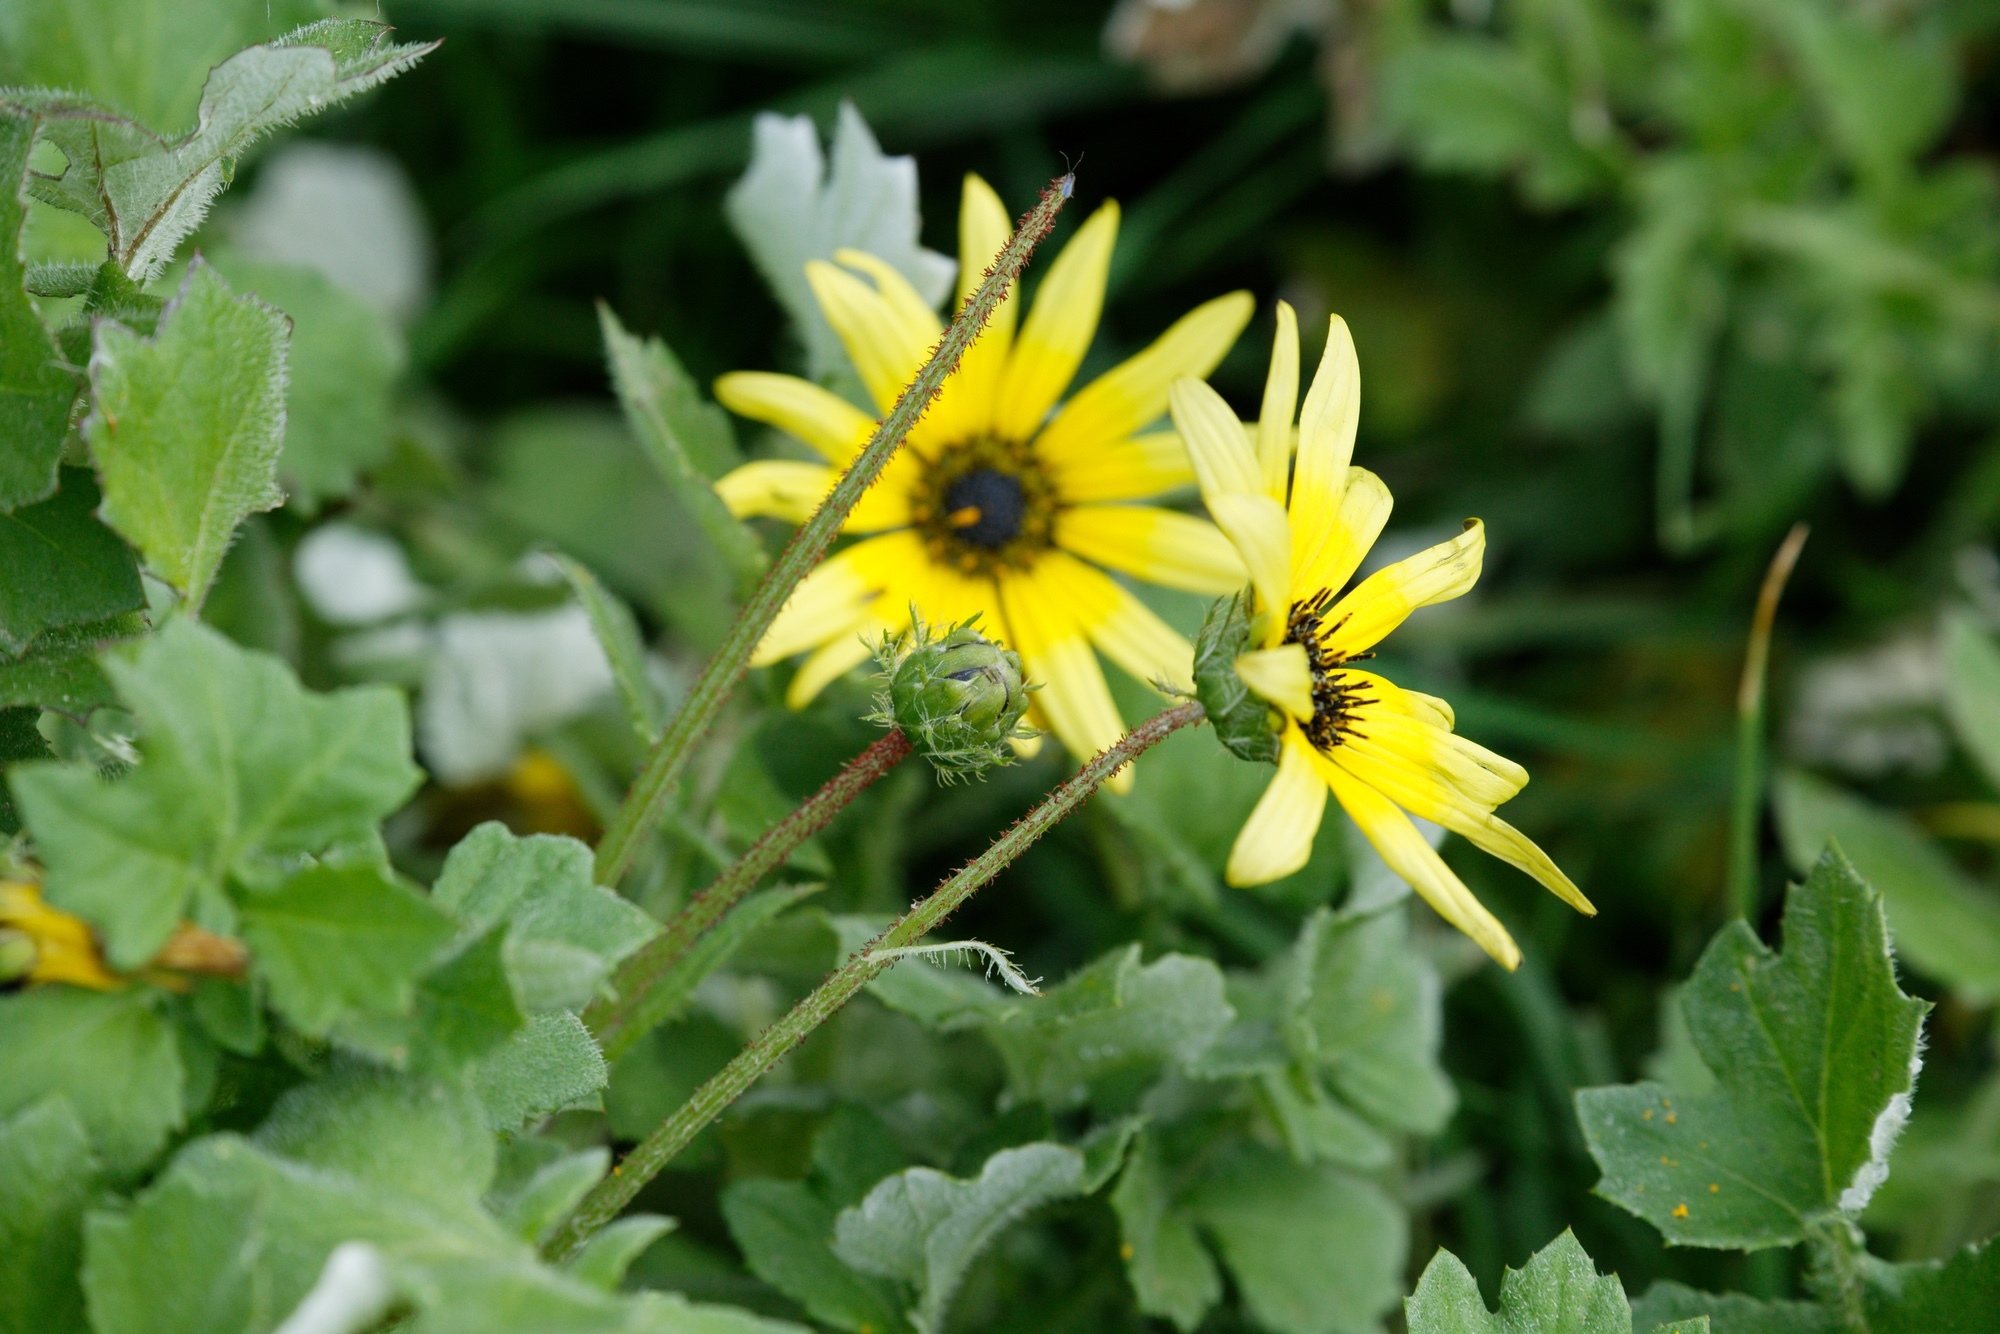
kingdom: Plantae
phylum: Tracheophyta
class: Magnoliopsida
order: Asterales
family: Asteraceae
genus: Arctotheca
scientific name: Arctotheca calendula
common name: Capeweed
